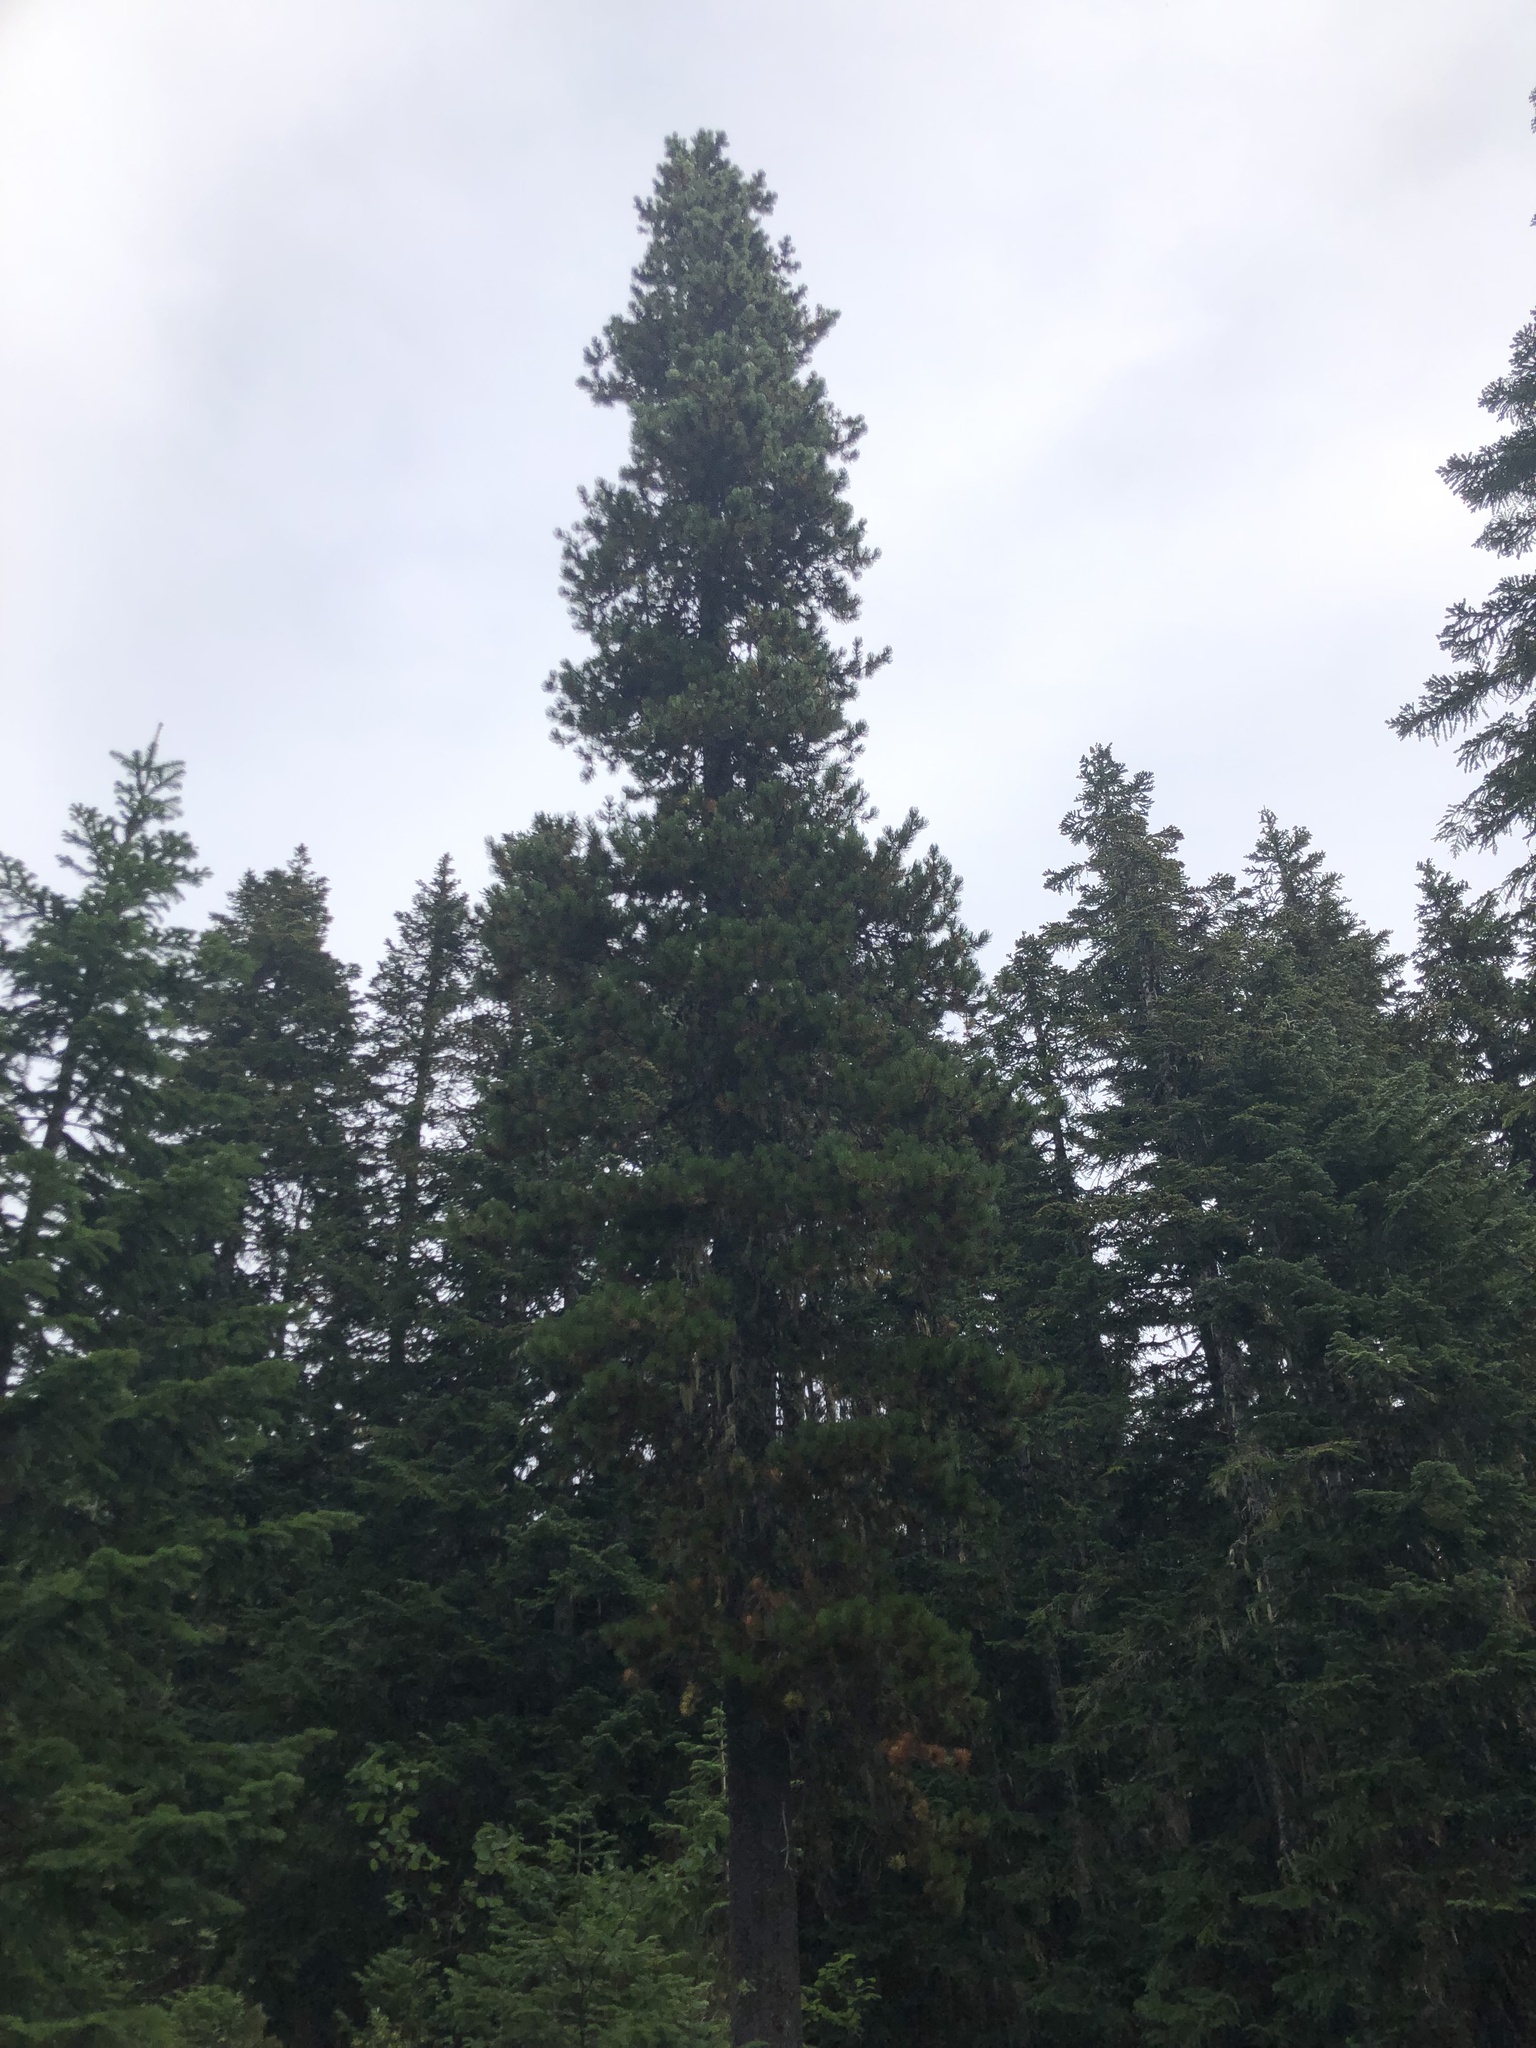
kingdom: Plantae
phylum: Tracheophyta
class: Pinopsida
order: Pinales
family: Pinaceae
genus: Pinus
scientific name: Pinus contorta
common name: Lodgepole pine
